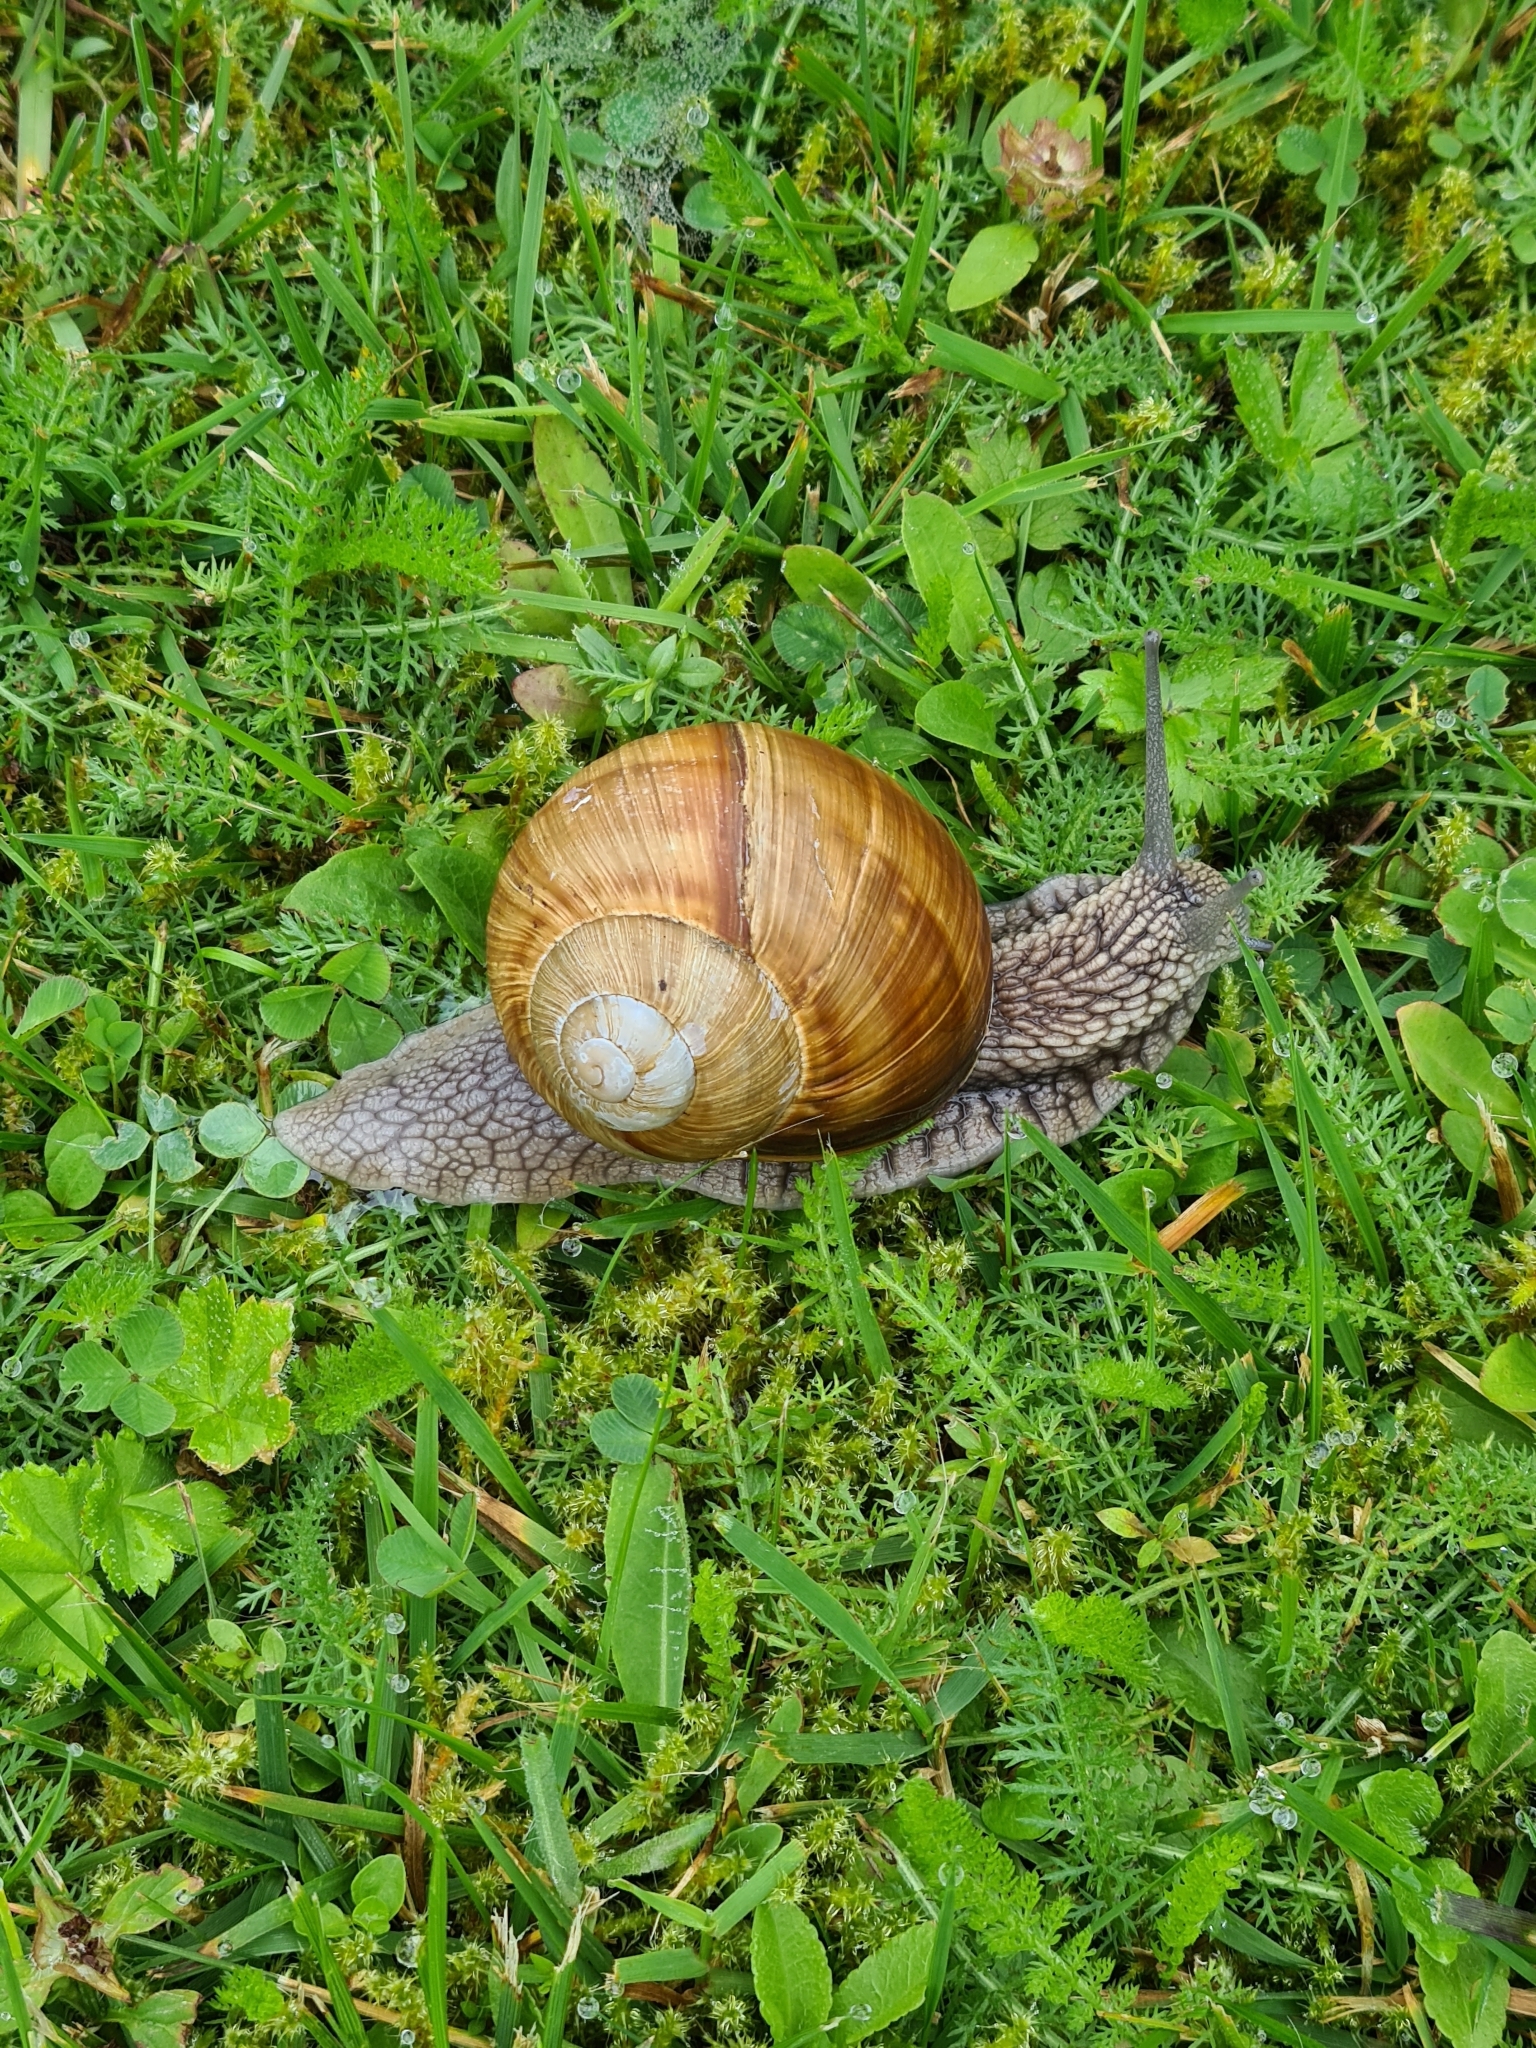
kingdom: Animalia
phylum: Mollusca
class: Gastropoda
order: Stylommatophora
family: Helicidae
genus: Helix
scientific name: Helix pomatia
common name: Roman snail
